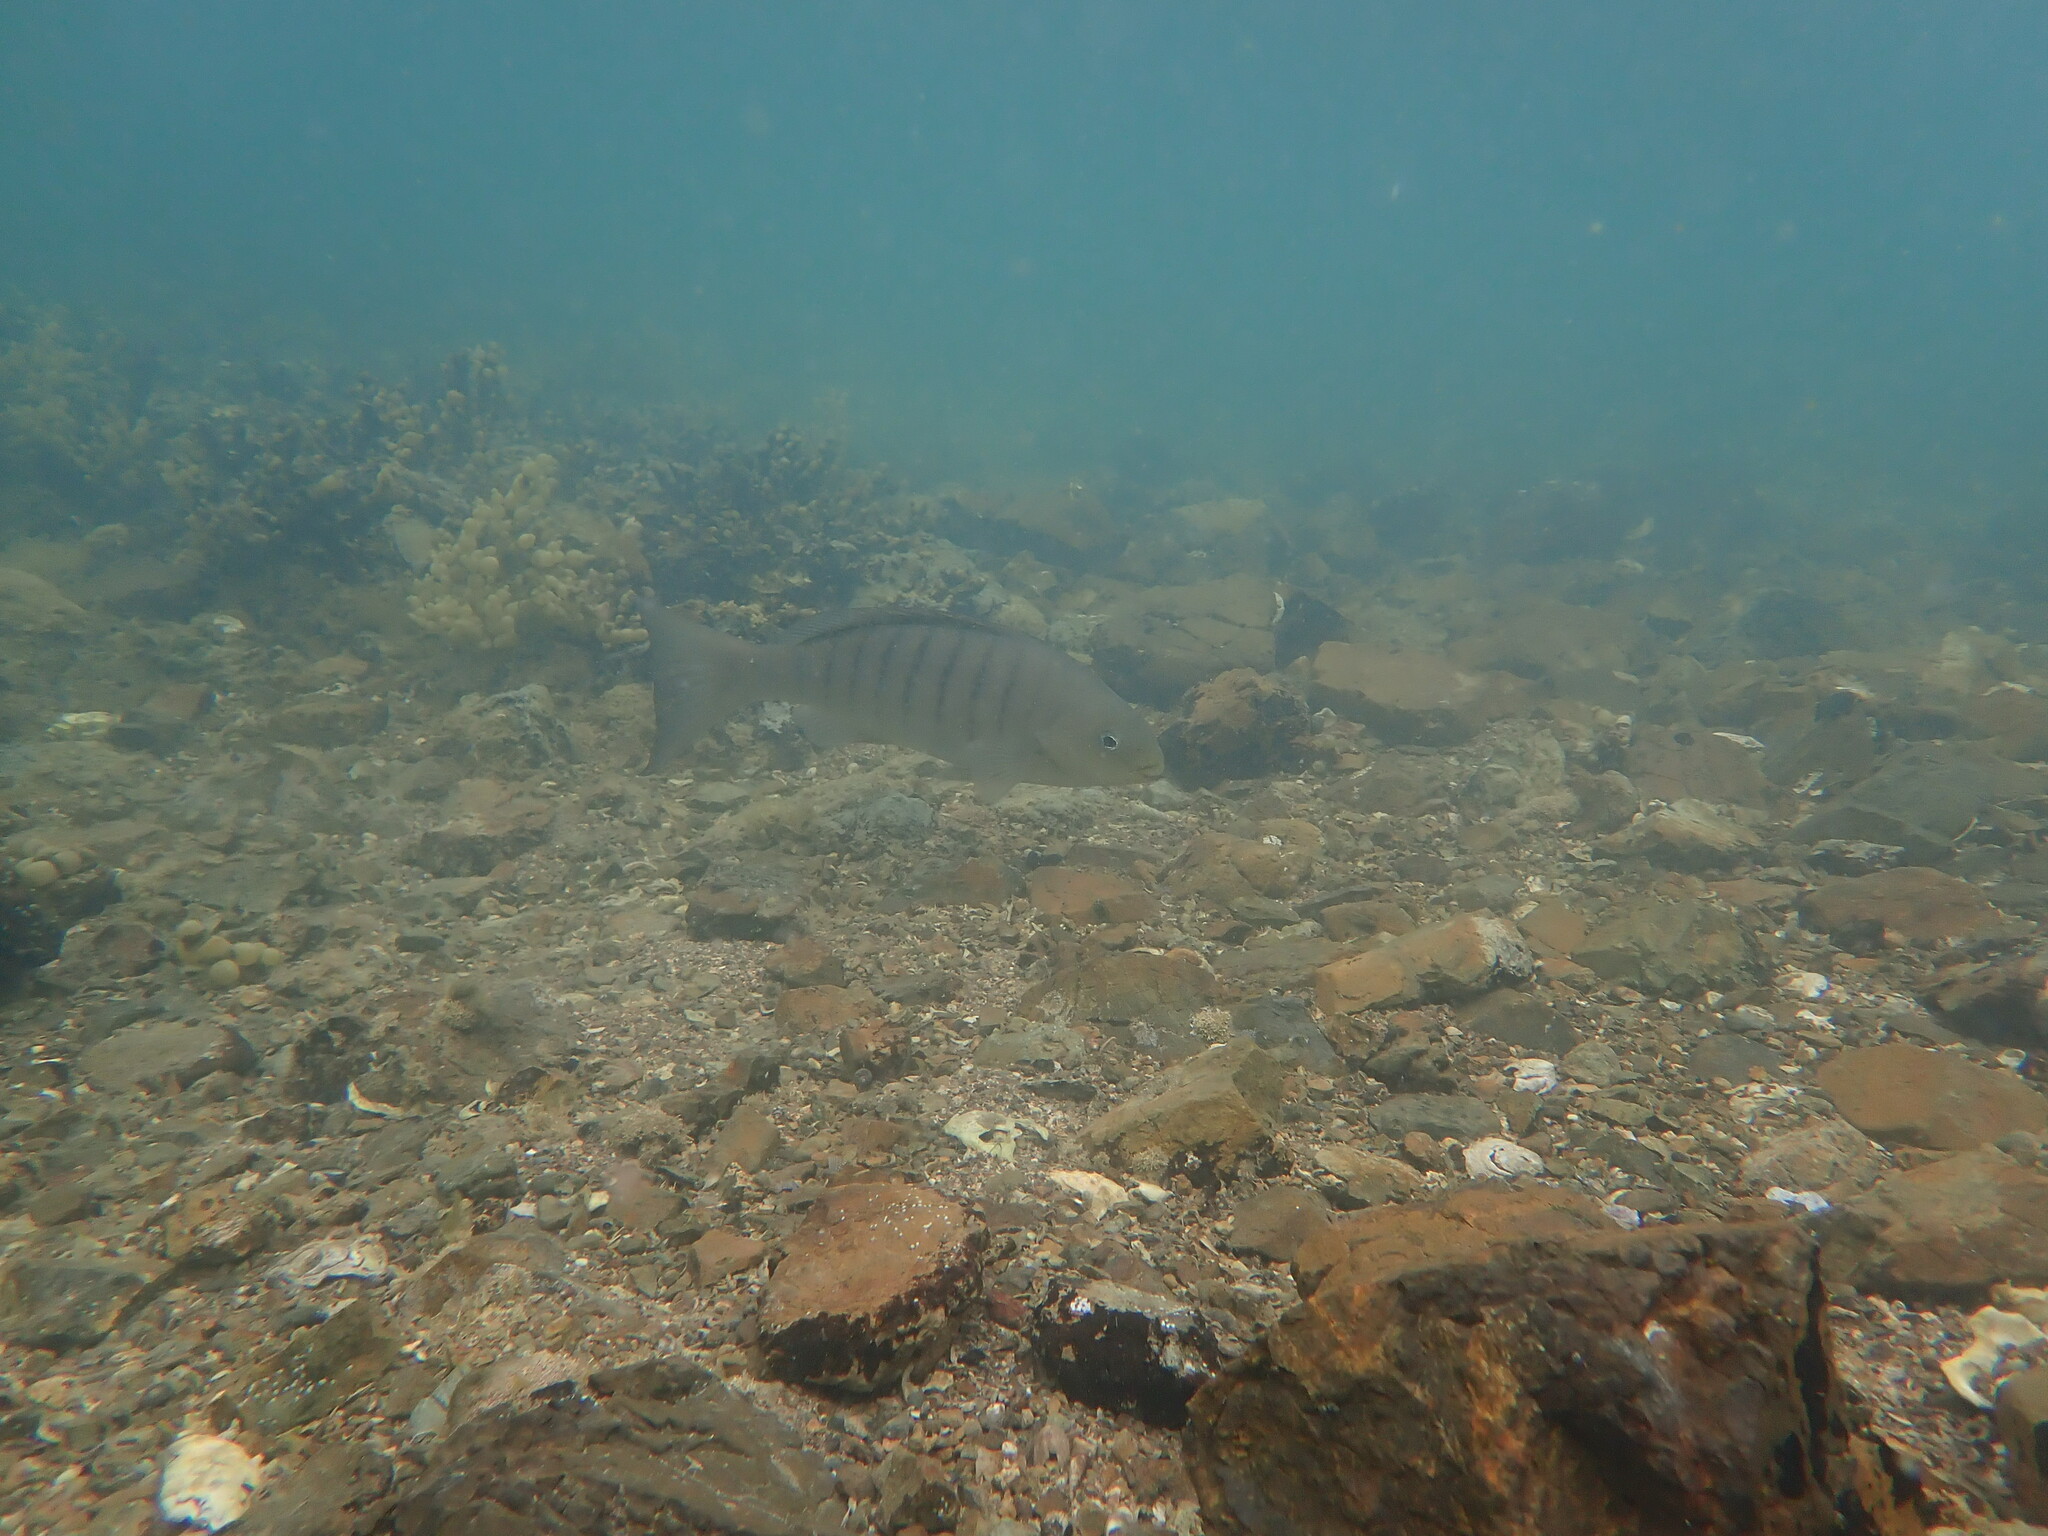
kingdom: Animalia
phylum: Chordata
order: Perciformes
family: Kyphosidae
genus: Girella
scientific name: Girella tricuspidata
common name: Parore
